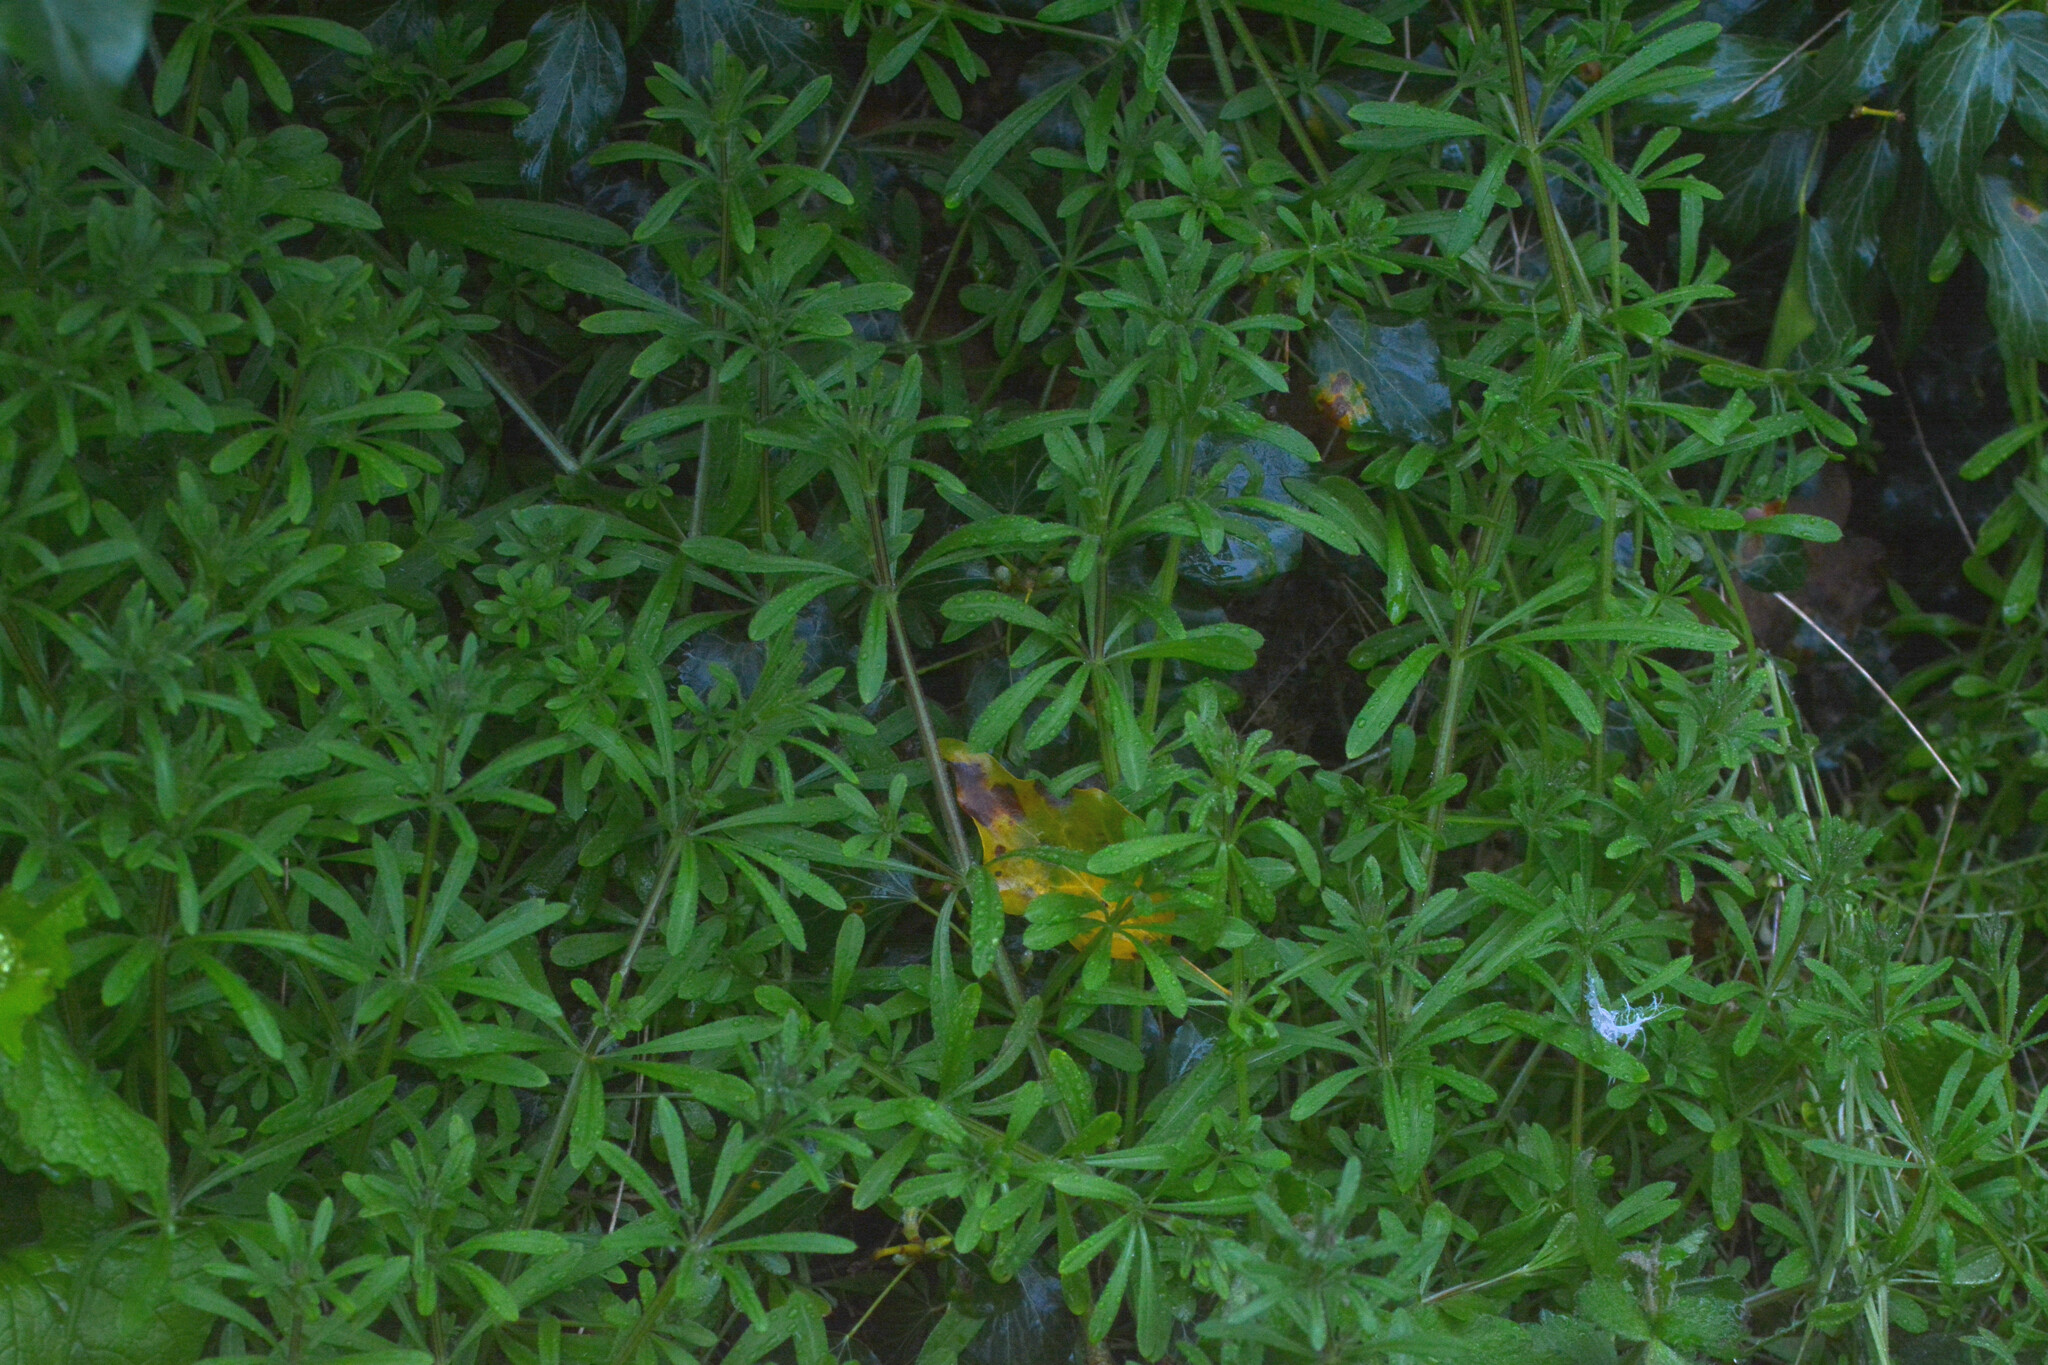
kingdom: Plantae
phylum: Tracheophyta
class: Magnoliopsida
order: Gentianales
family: Rubiaceae
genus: Galium
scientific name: Galium aparine
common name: Cleavers
